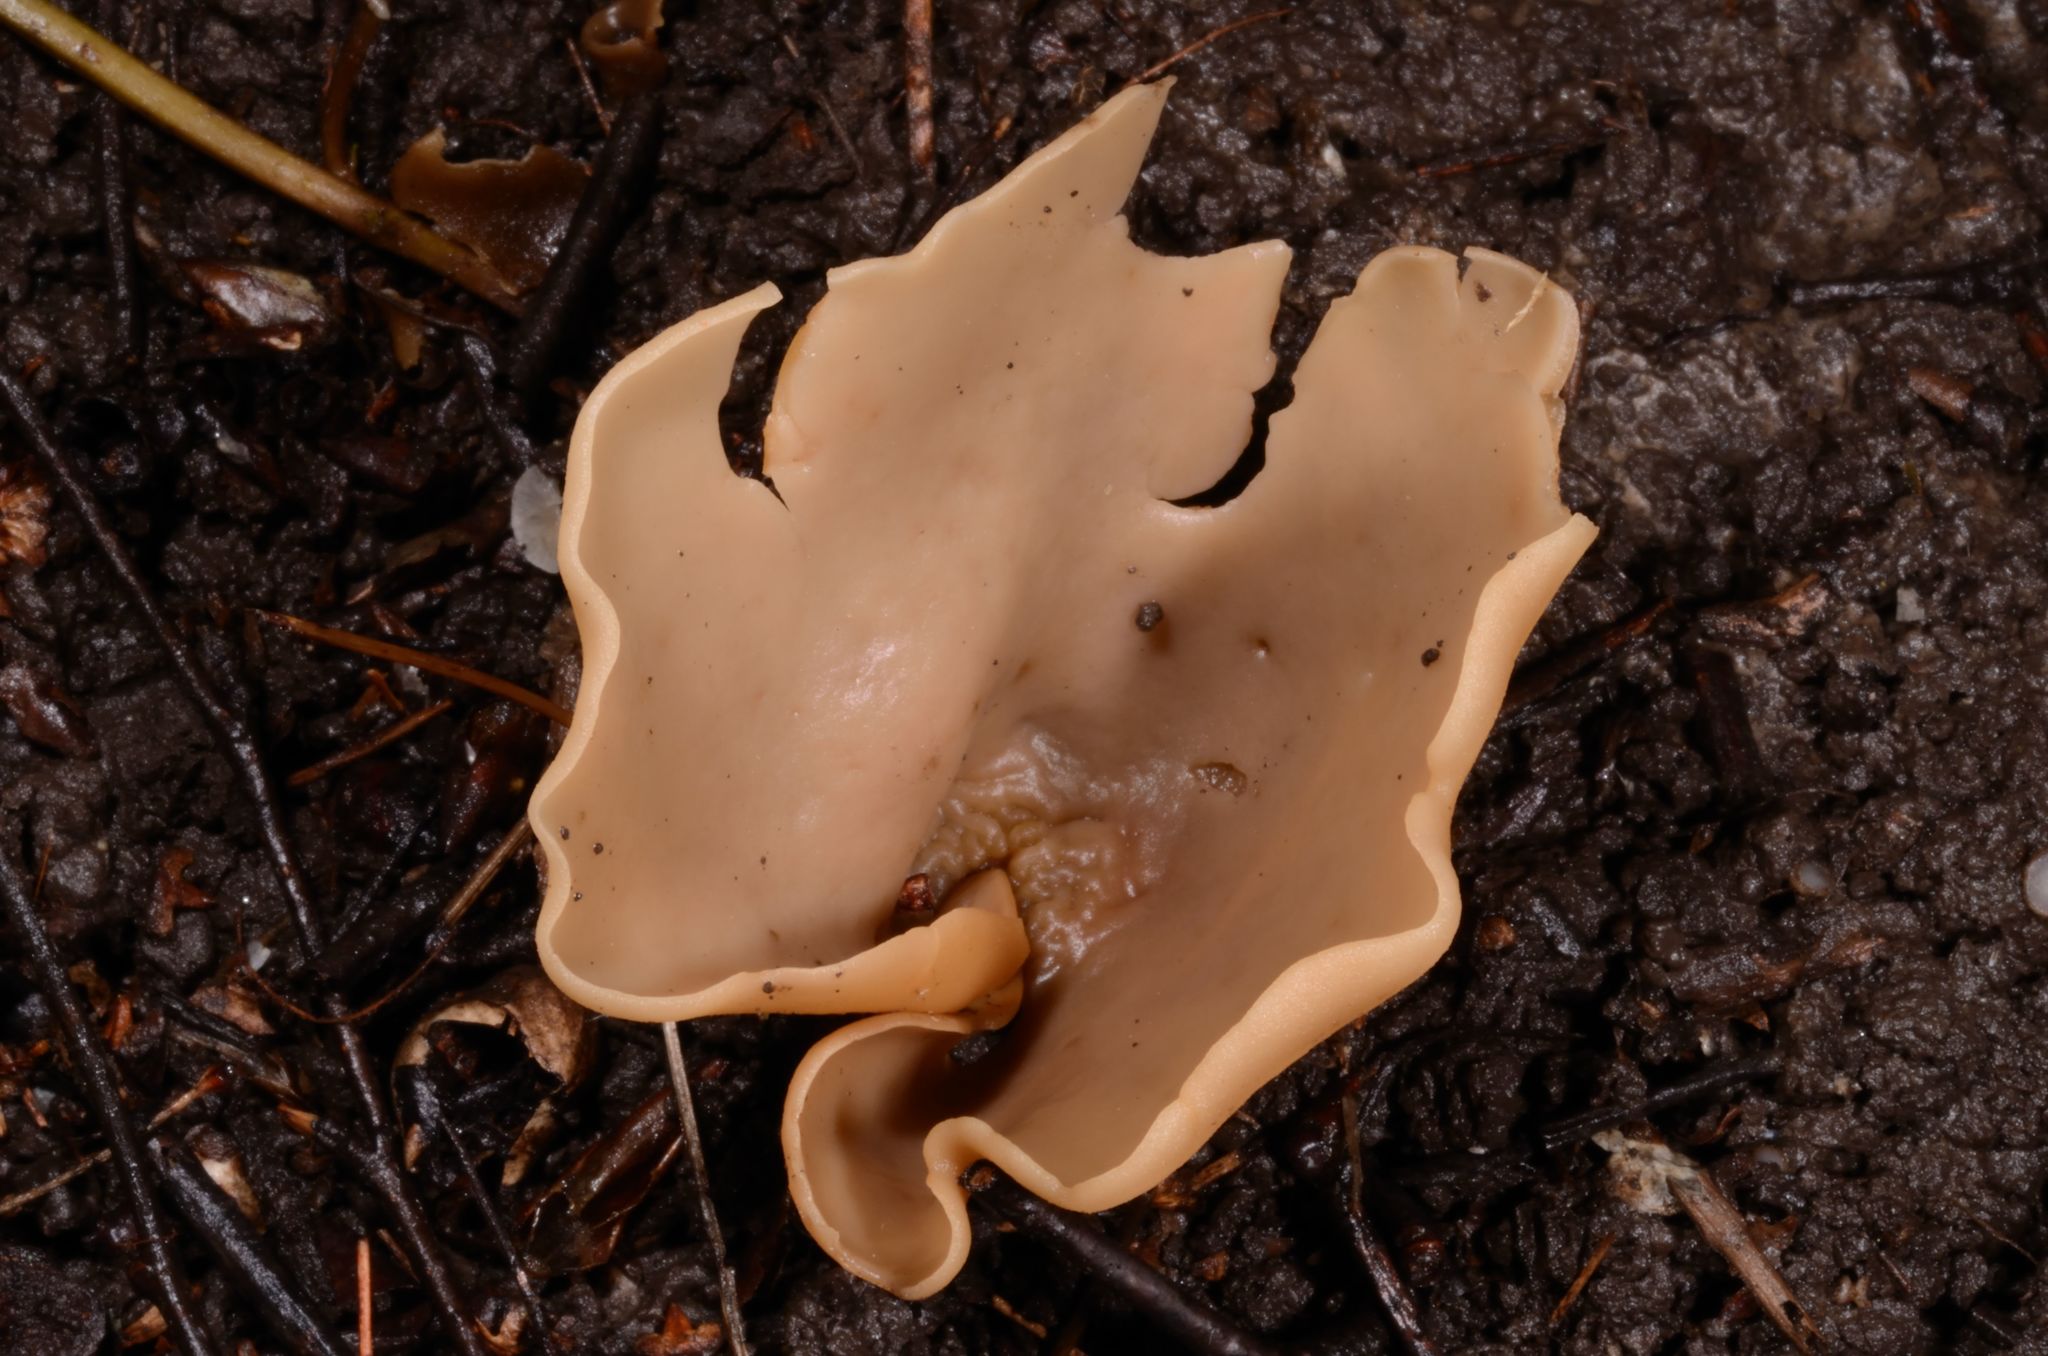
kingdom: Fungi
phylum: Ascomycota
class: Pezizomycetes
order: Pezizales
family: Otideaceae
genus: Otidea
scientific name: Otidea alutacea
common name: Tan ear
